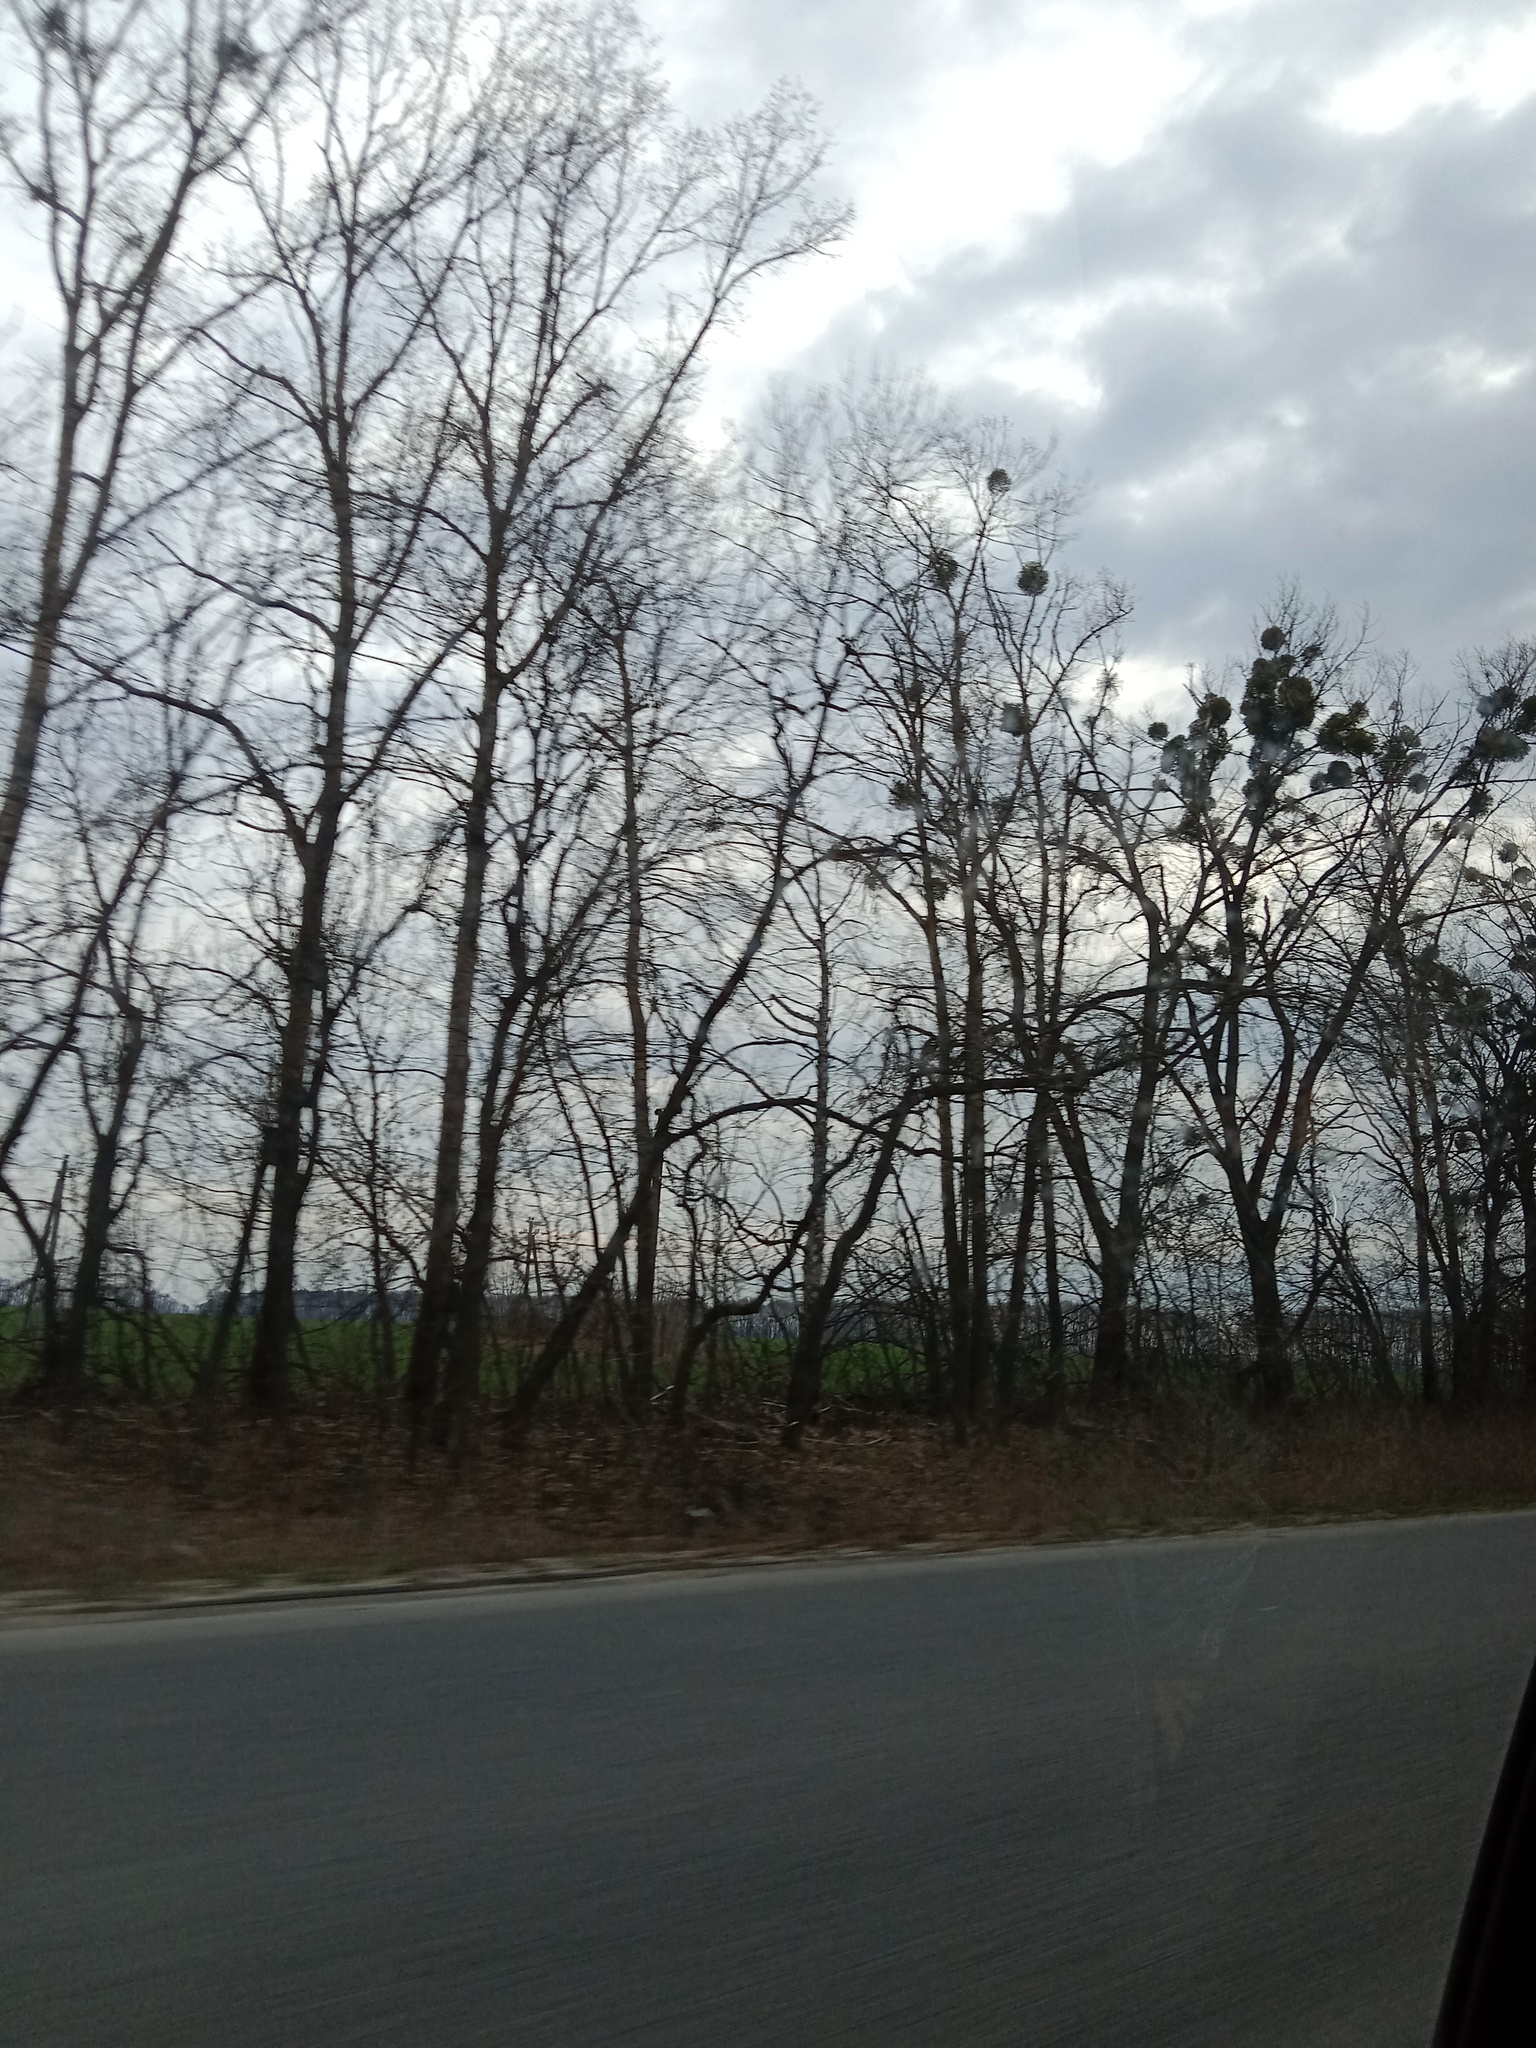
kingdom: Plantae
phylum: Tracheophyta
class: Magnoliopsida
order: Santalales
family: Viscaceae
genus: Viscum
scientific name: Viscum album
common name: Mistletoe
